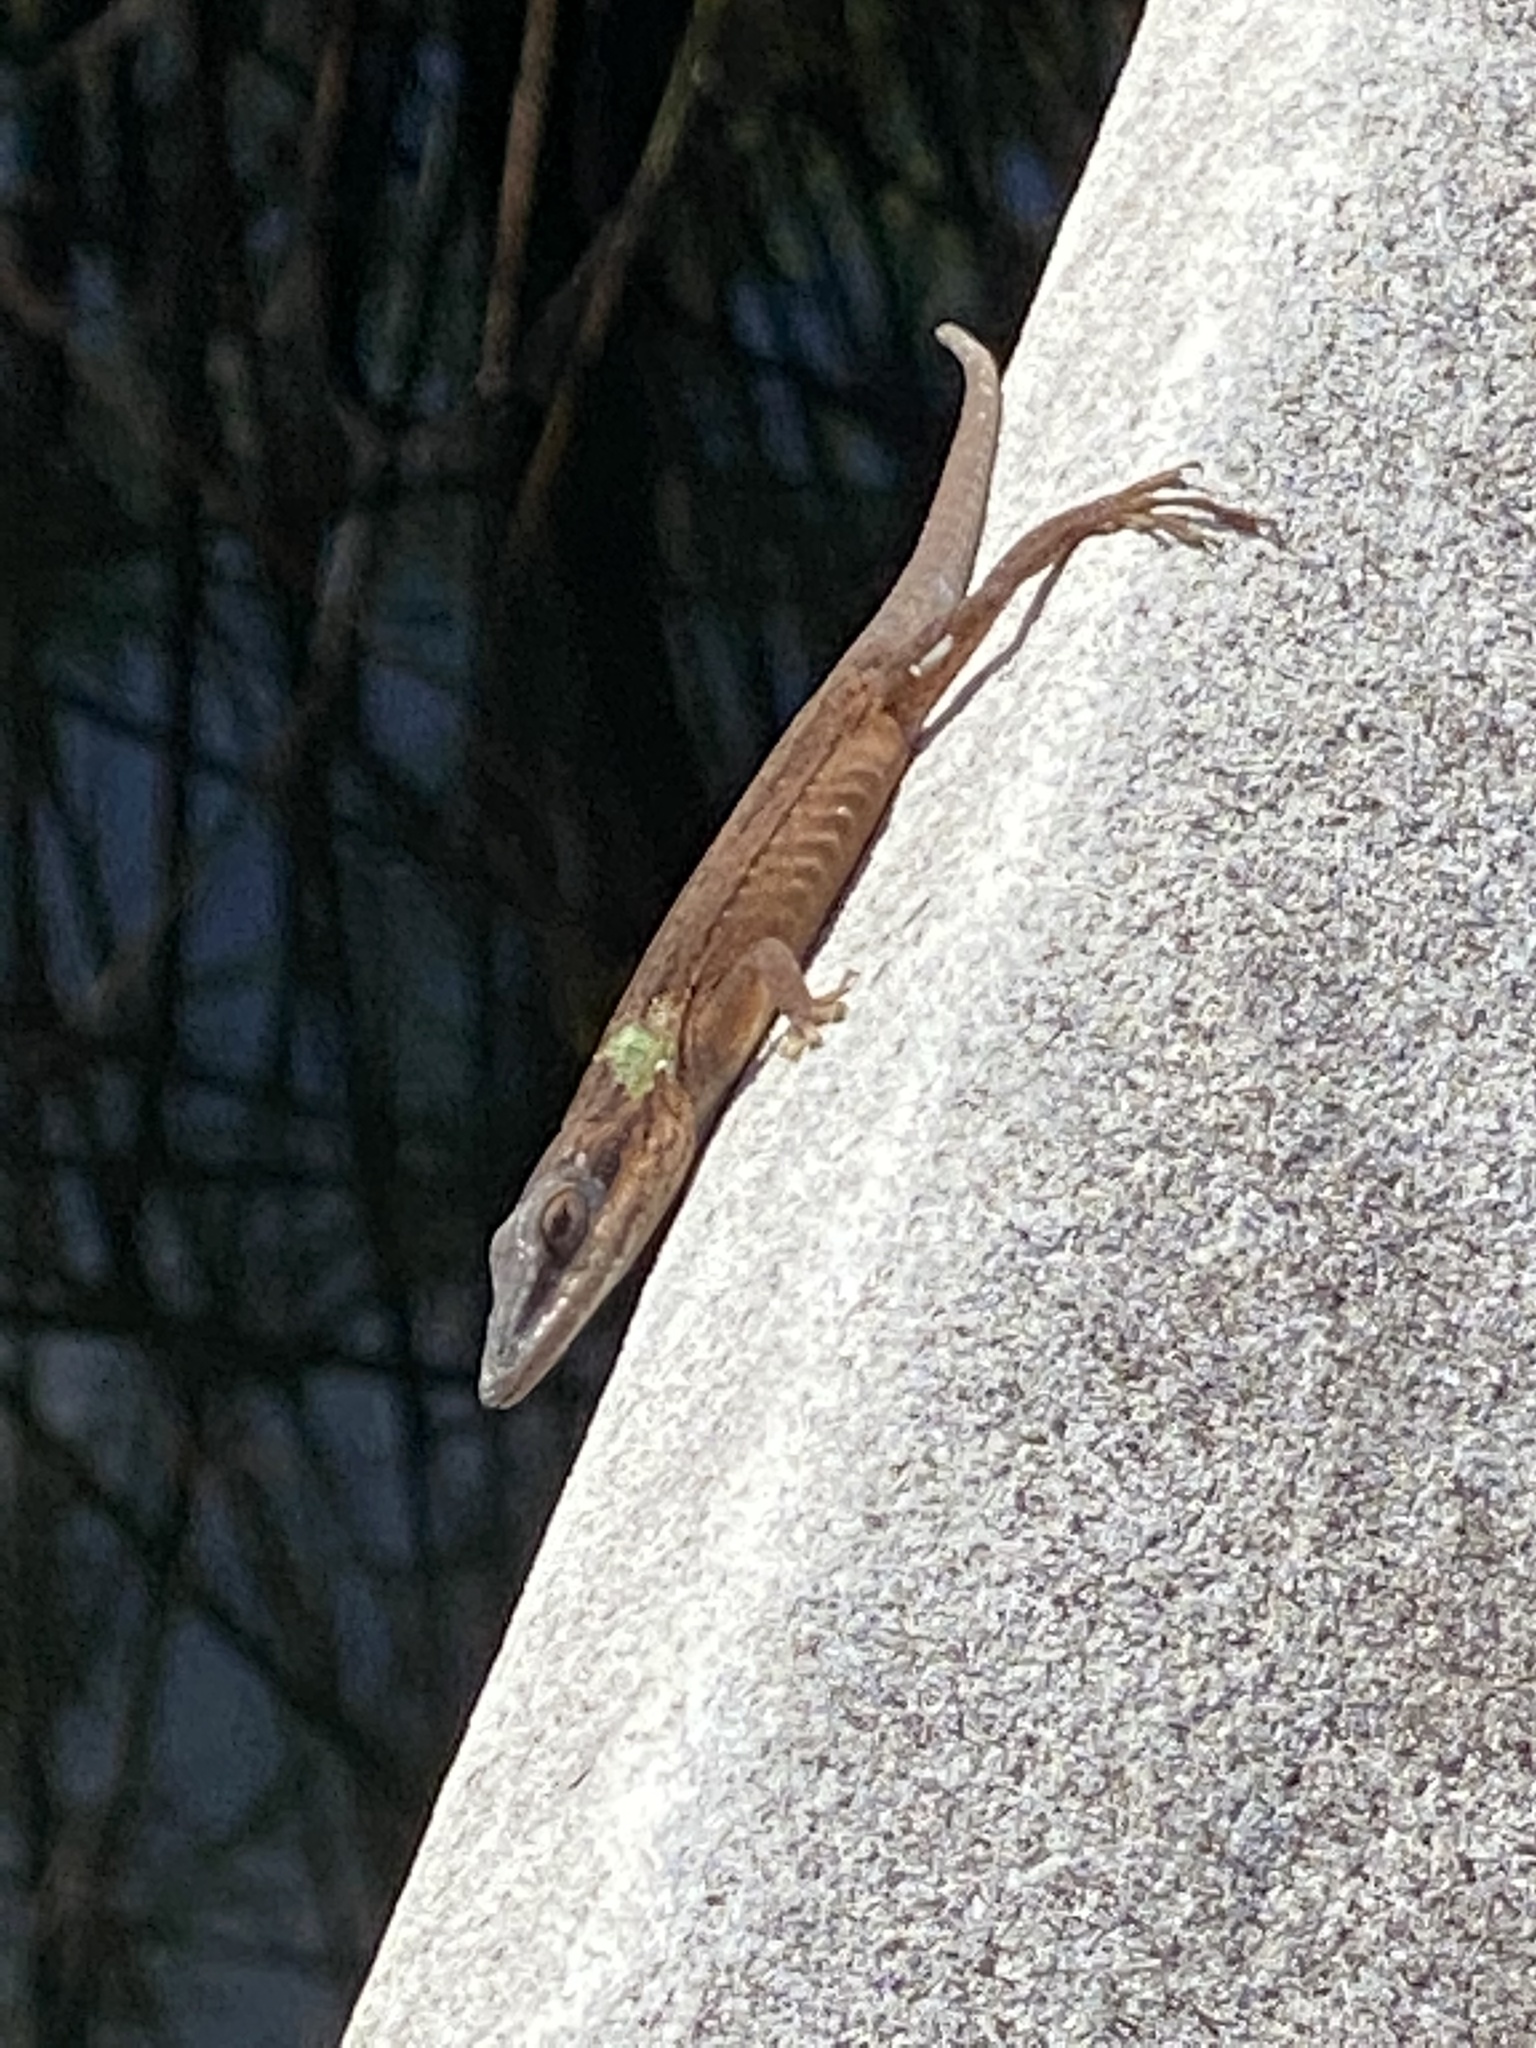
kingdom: Animalia
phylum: Chordata
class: Squamata
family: Dactyloidae
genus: Anolis
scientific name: Anolis carolinensis
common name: Green anole
